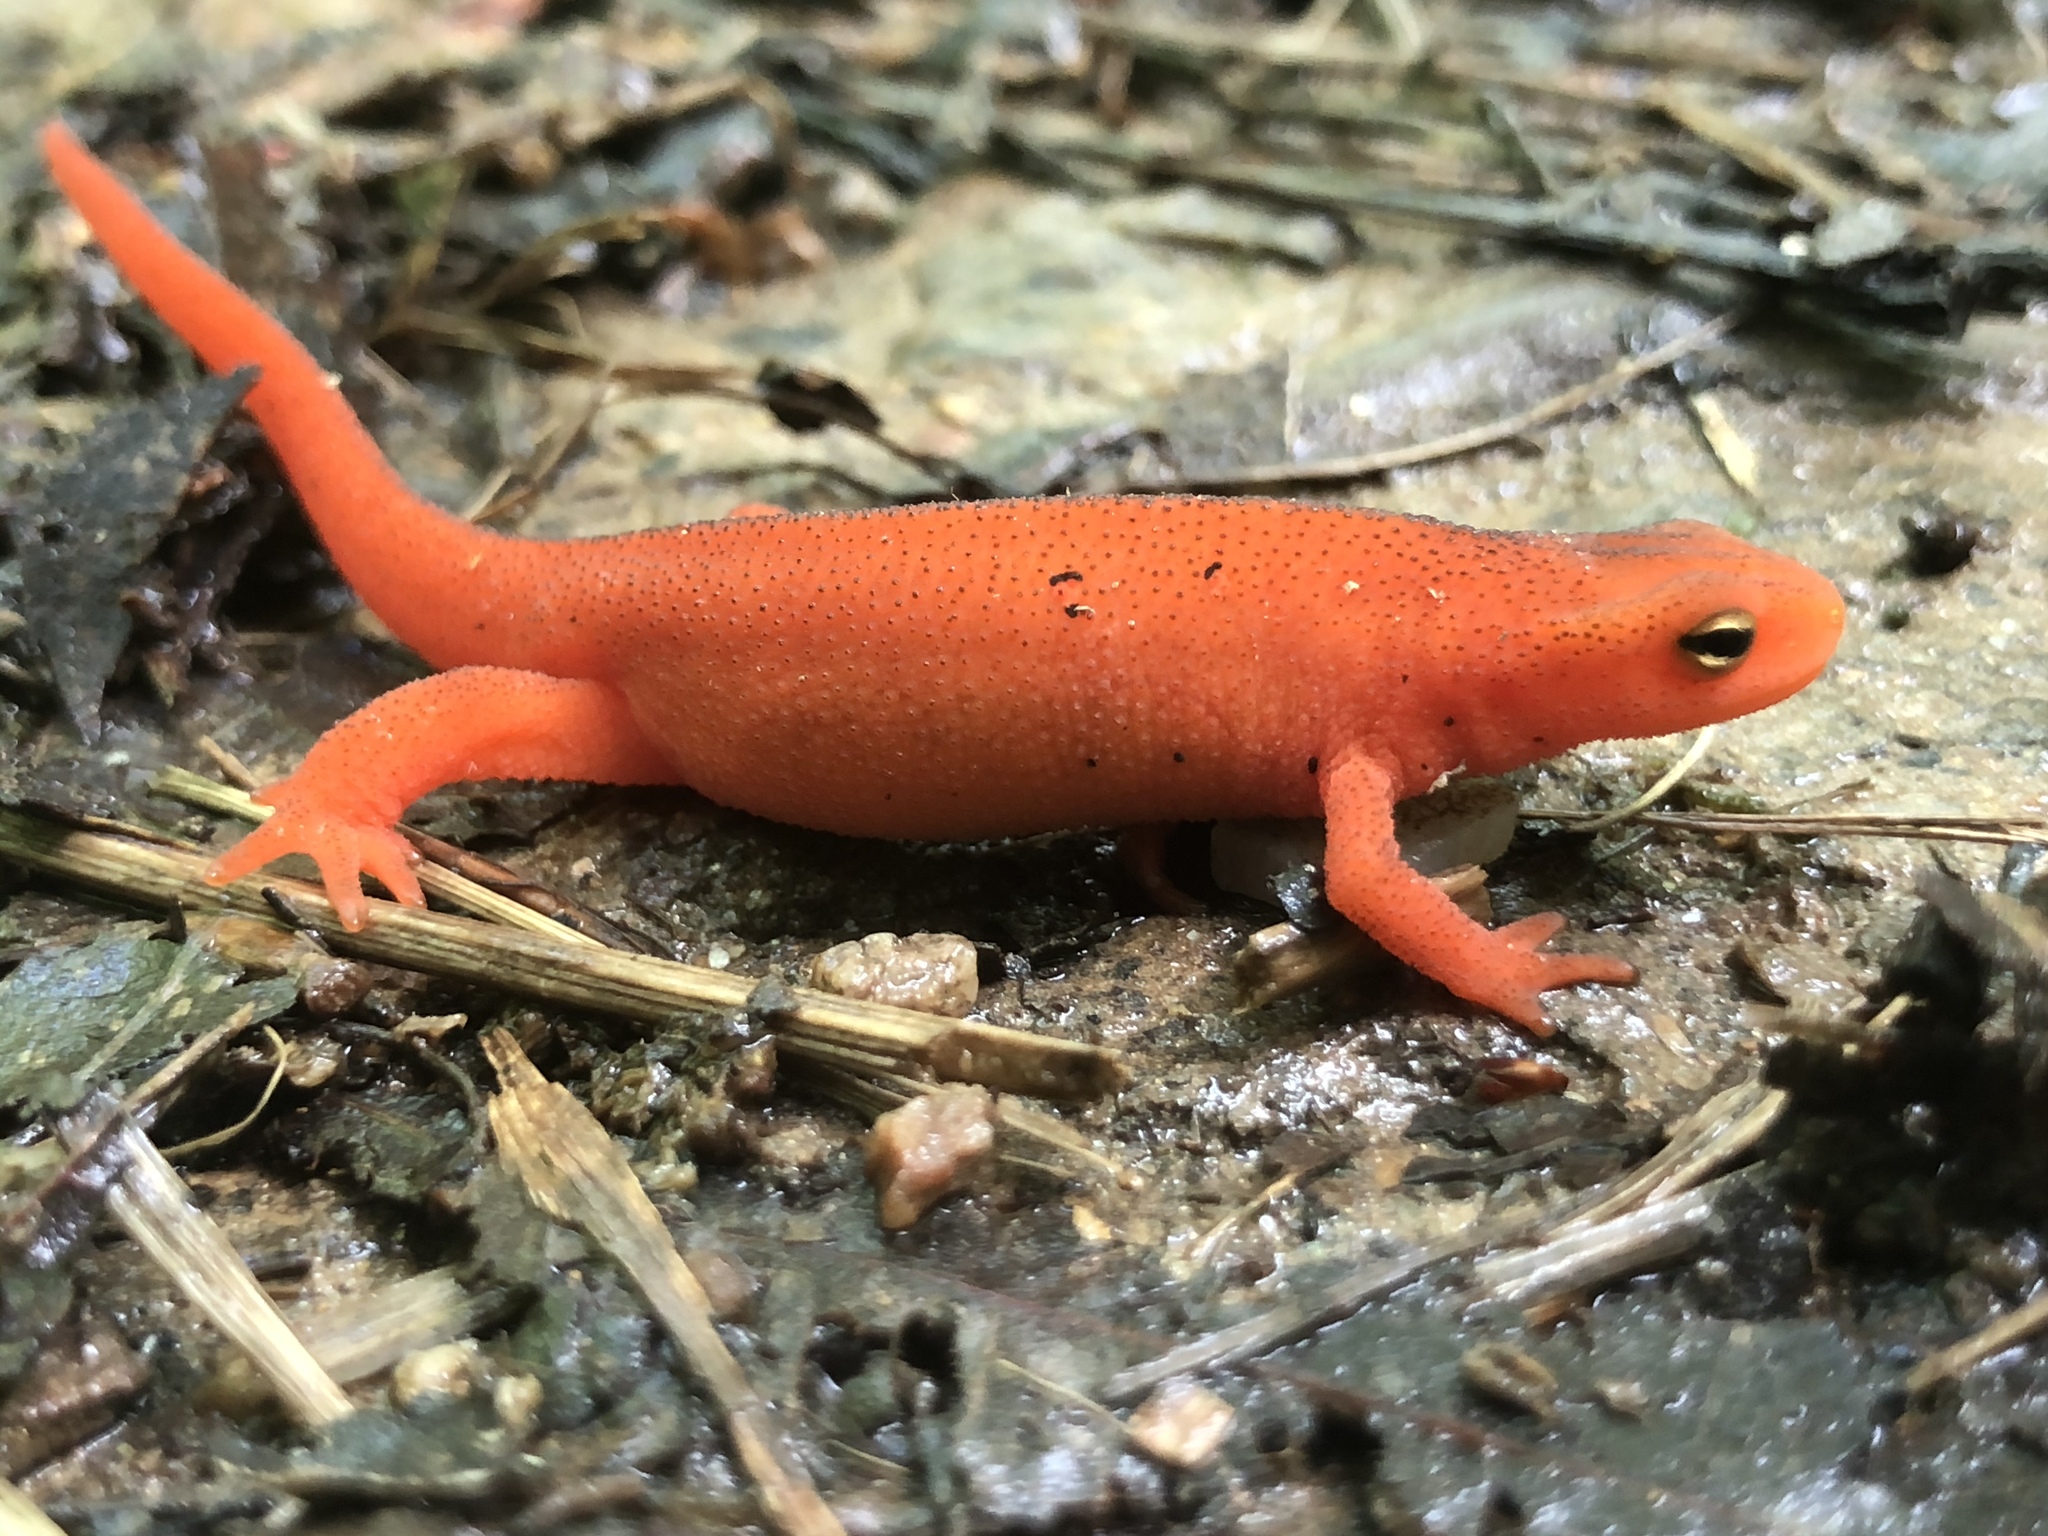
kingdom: Animalia
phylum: Chordata
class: Amphibia
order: Caudata
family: Salamandridae
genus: Notophthalmus
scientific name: Notophthalmus viridescens
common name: Eastern newt
